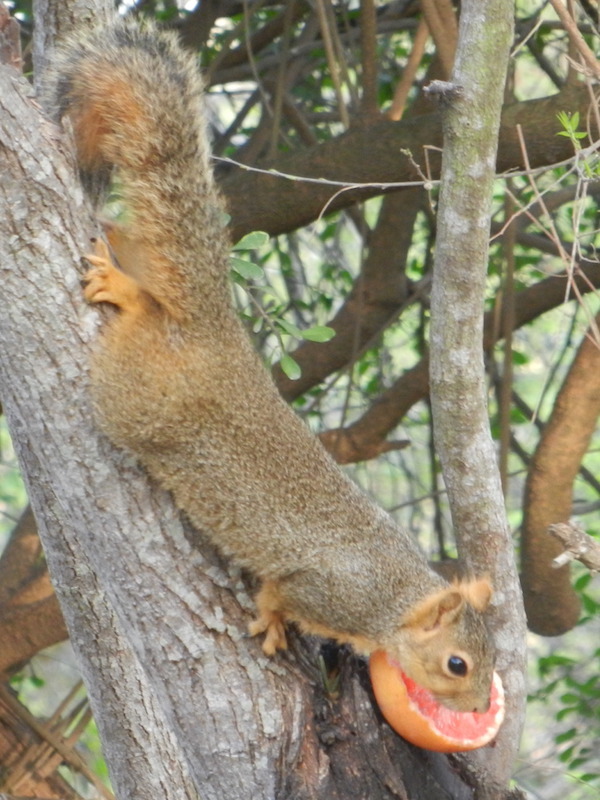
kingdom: Animalia
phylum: Chordata
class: Mammalia
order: Rodentia
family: Sciuridae
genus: Sciurus
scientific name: Sciurus niger
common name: Fox squirrel
